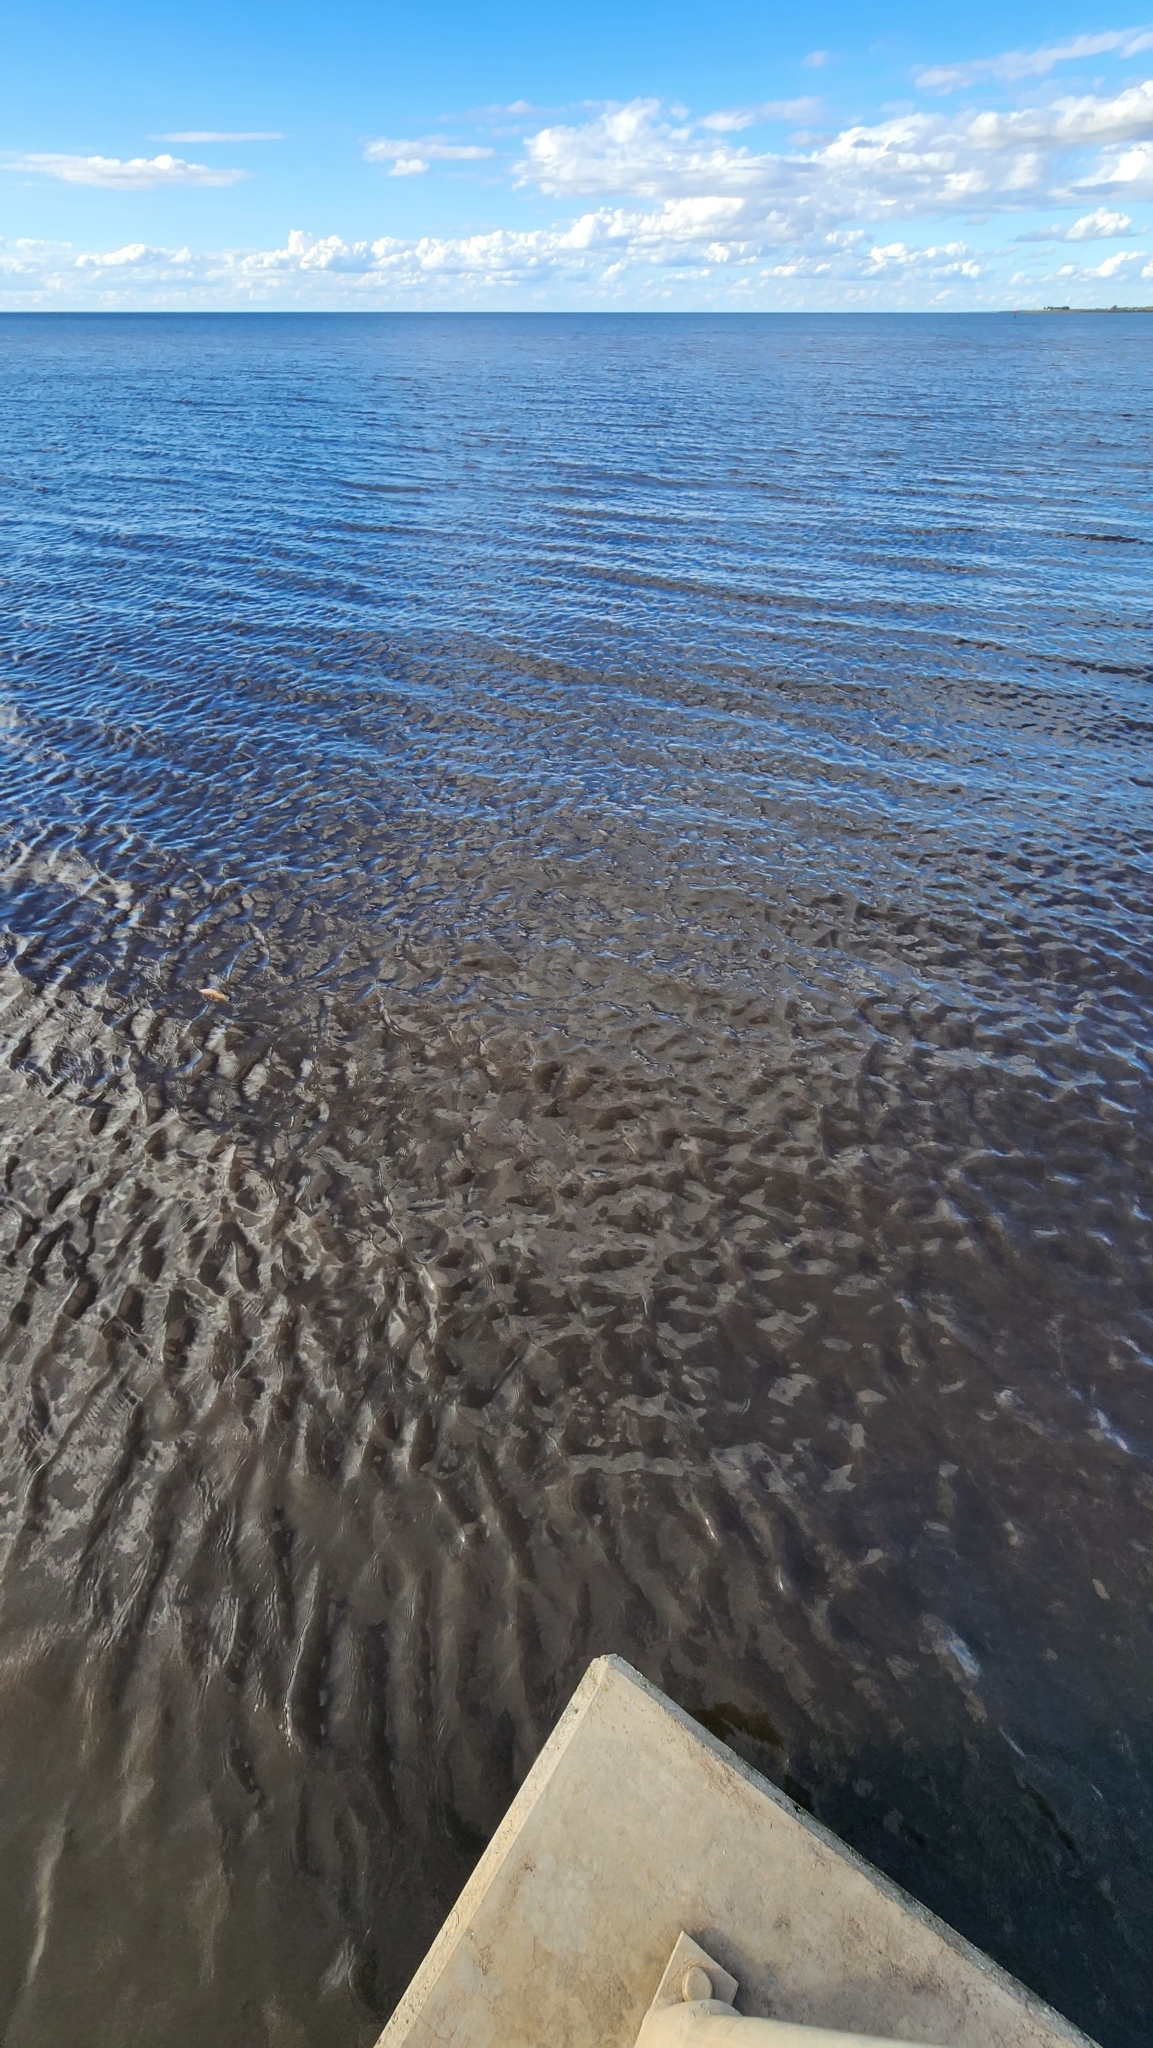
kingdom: Animalia
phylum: Chordata
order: Perciformes
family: Cichlidae
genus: Mayaheros
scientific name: Mayaheros urophthalmus
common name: Mayan cichlid
